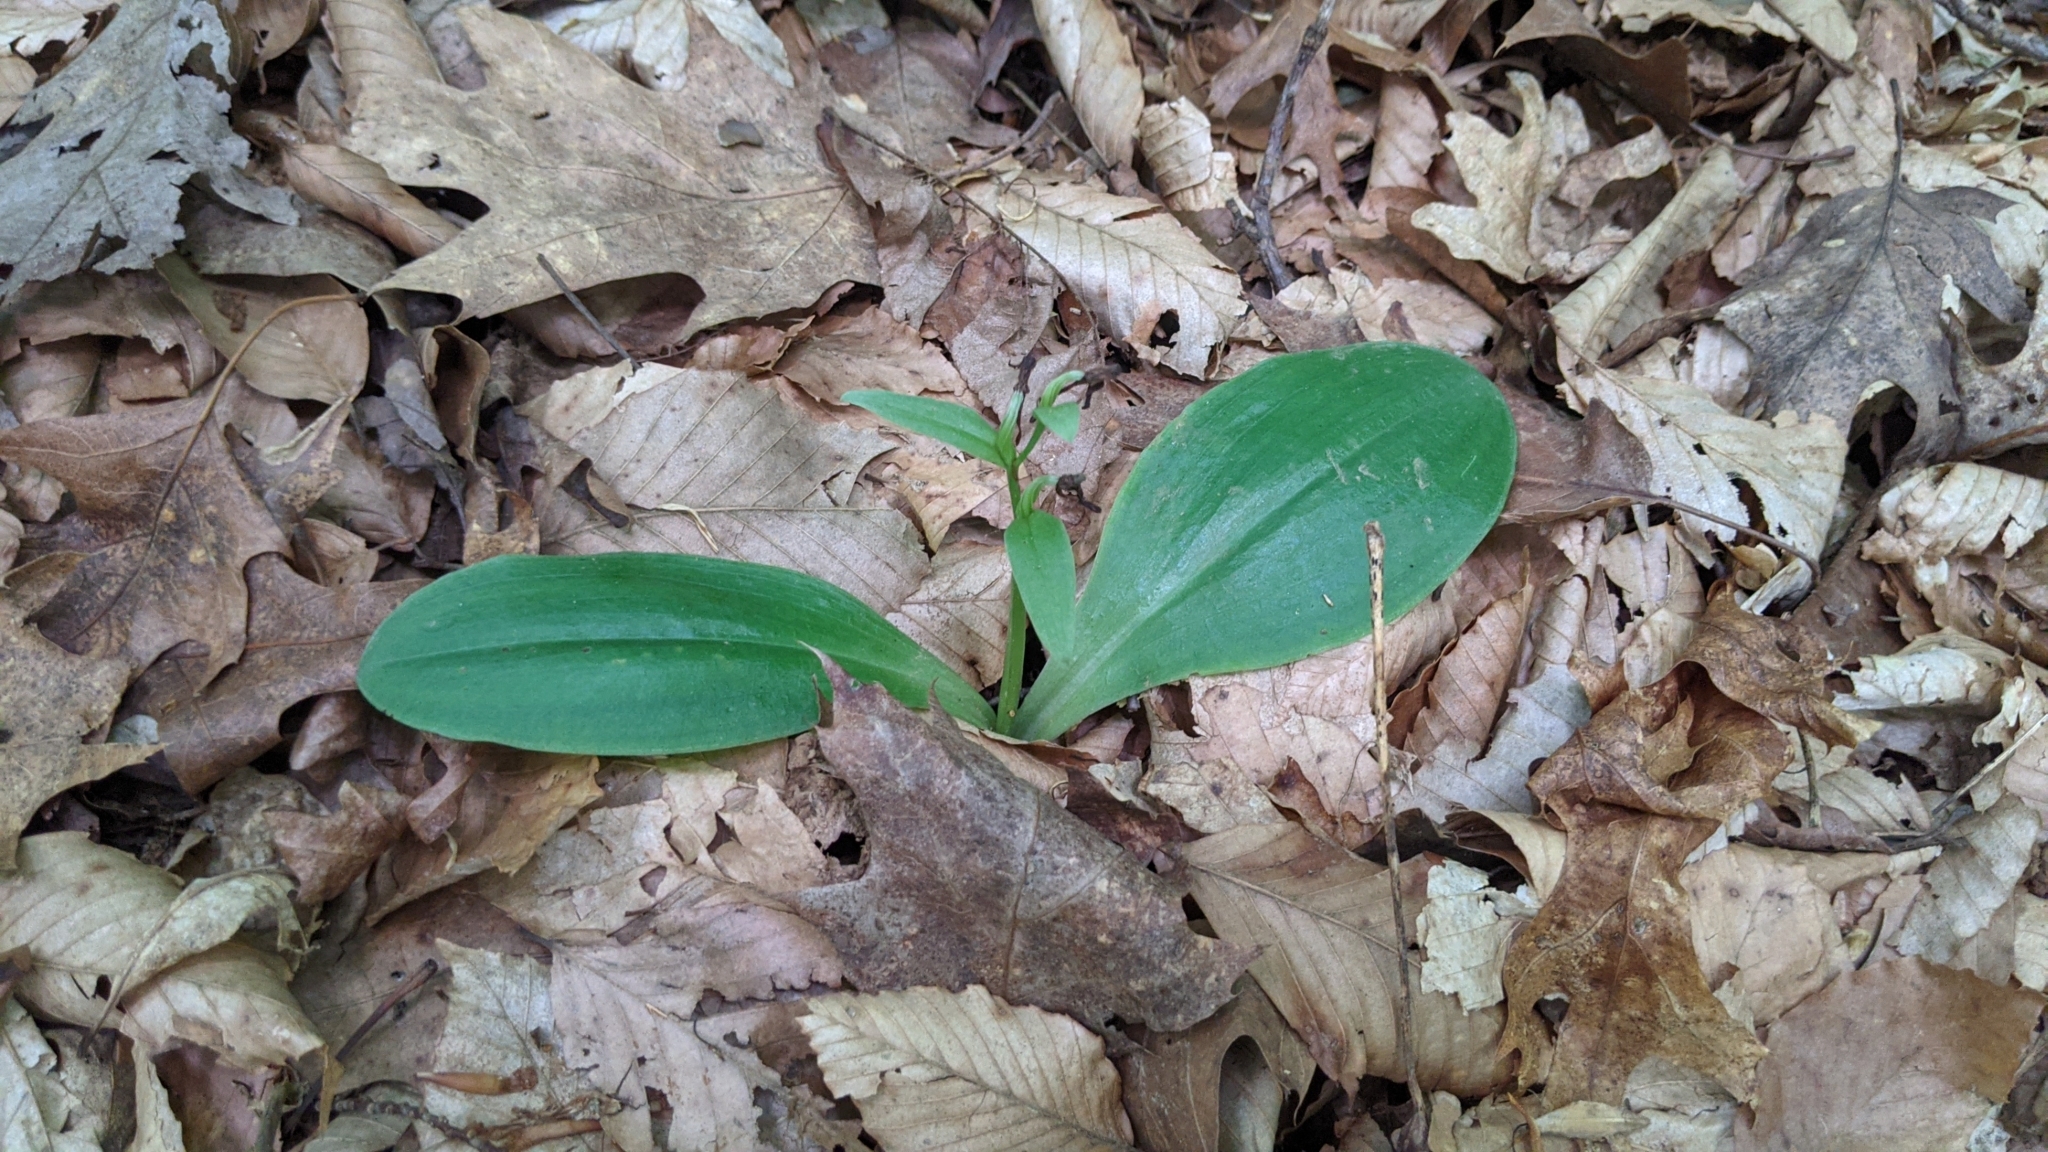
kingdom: Plantae
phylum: Tracheophyta
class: Liliopsida
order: Asparagales
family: Orchidaceae
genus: Galearis
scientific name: Galearis spectabilis
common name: Purple-hooded orchis
